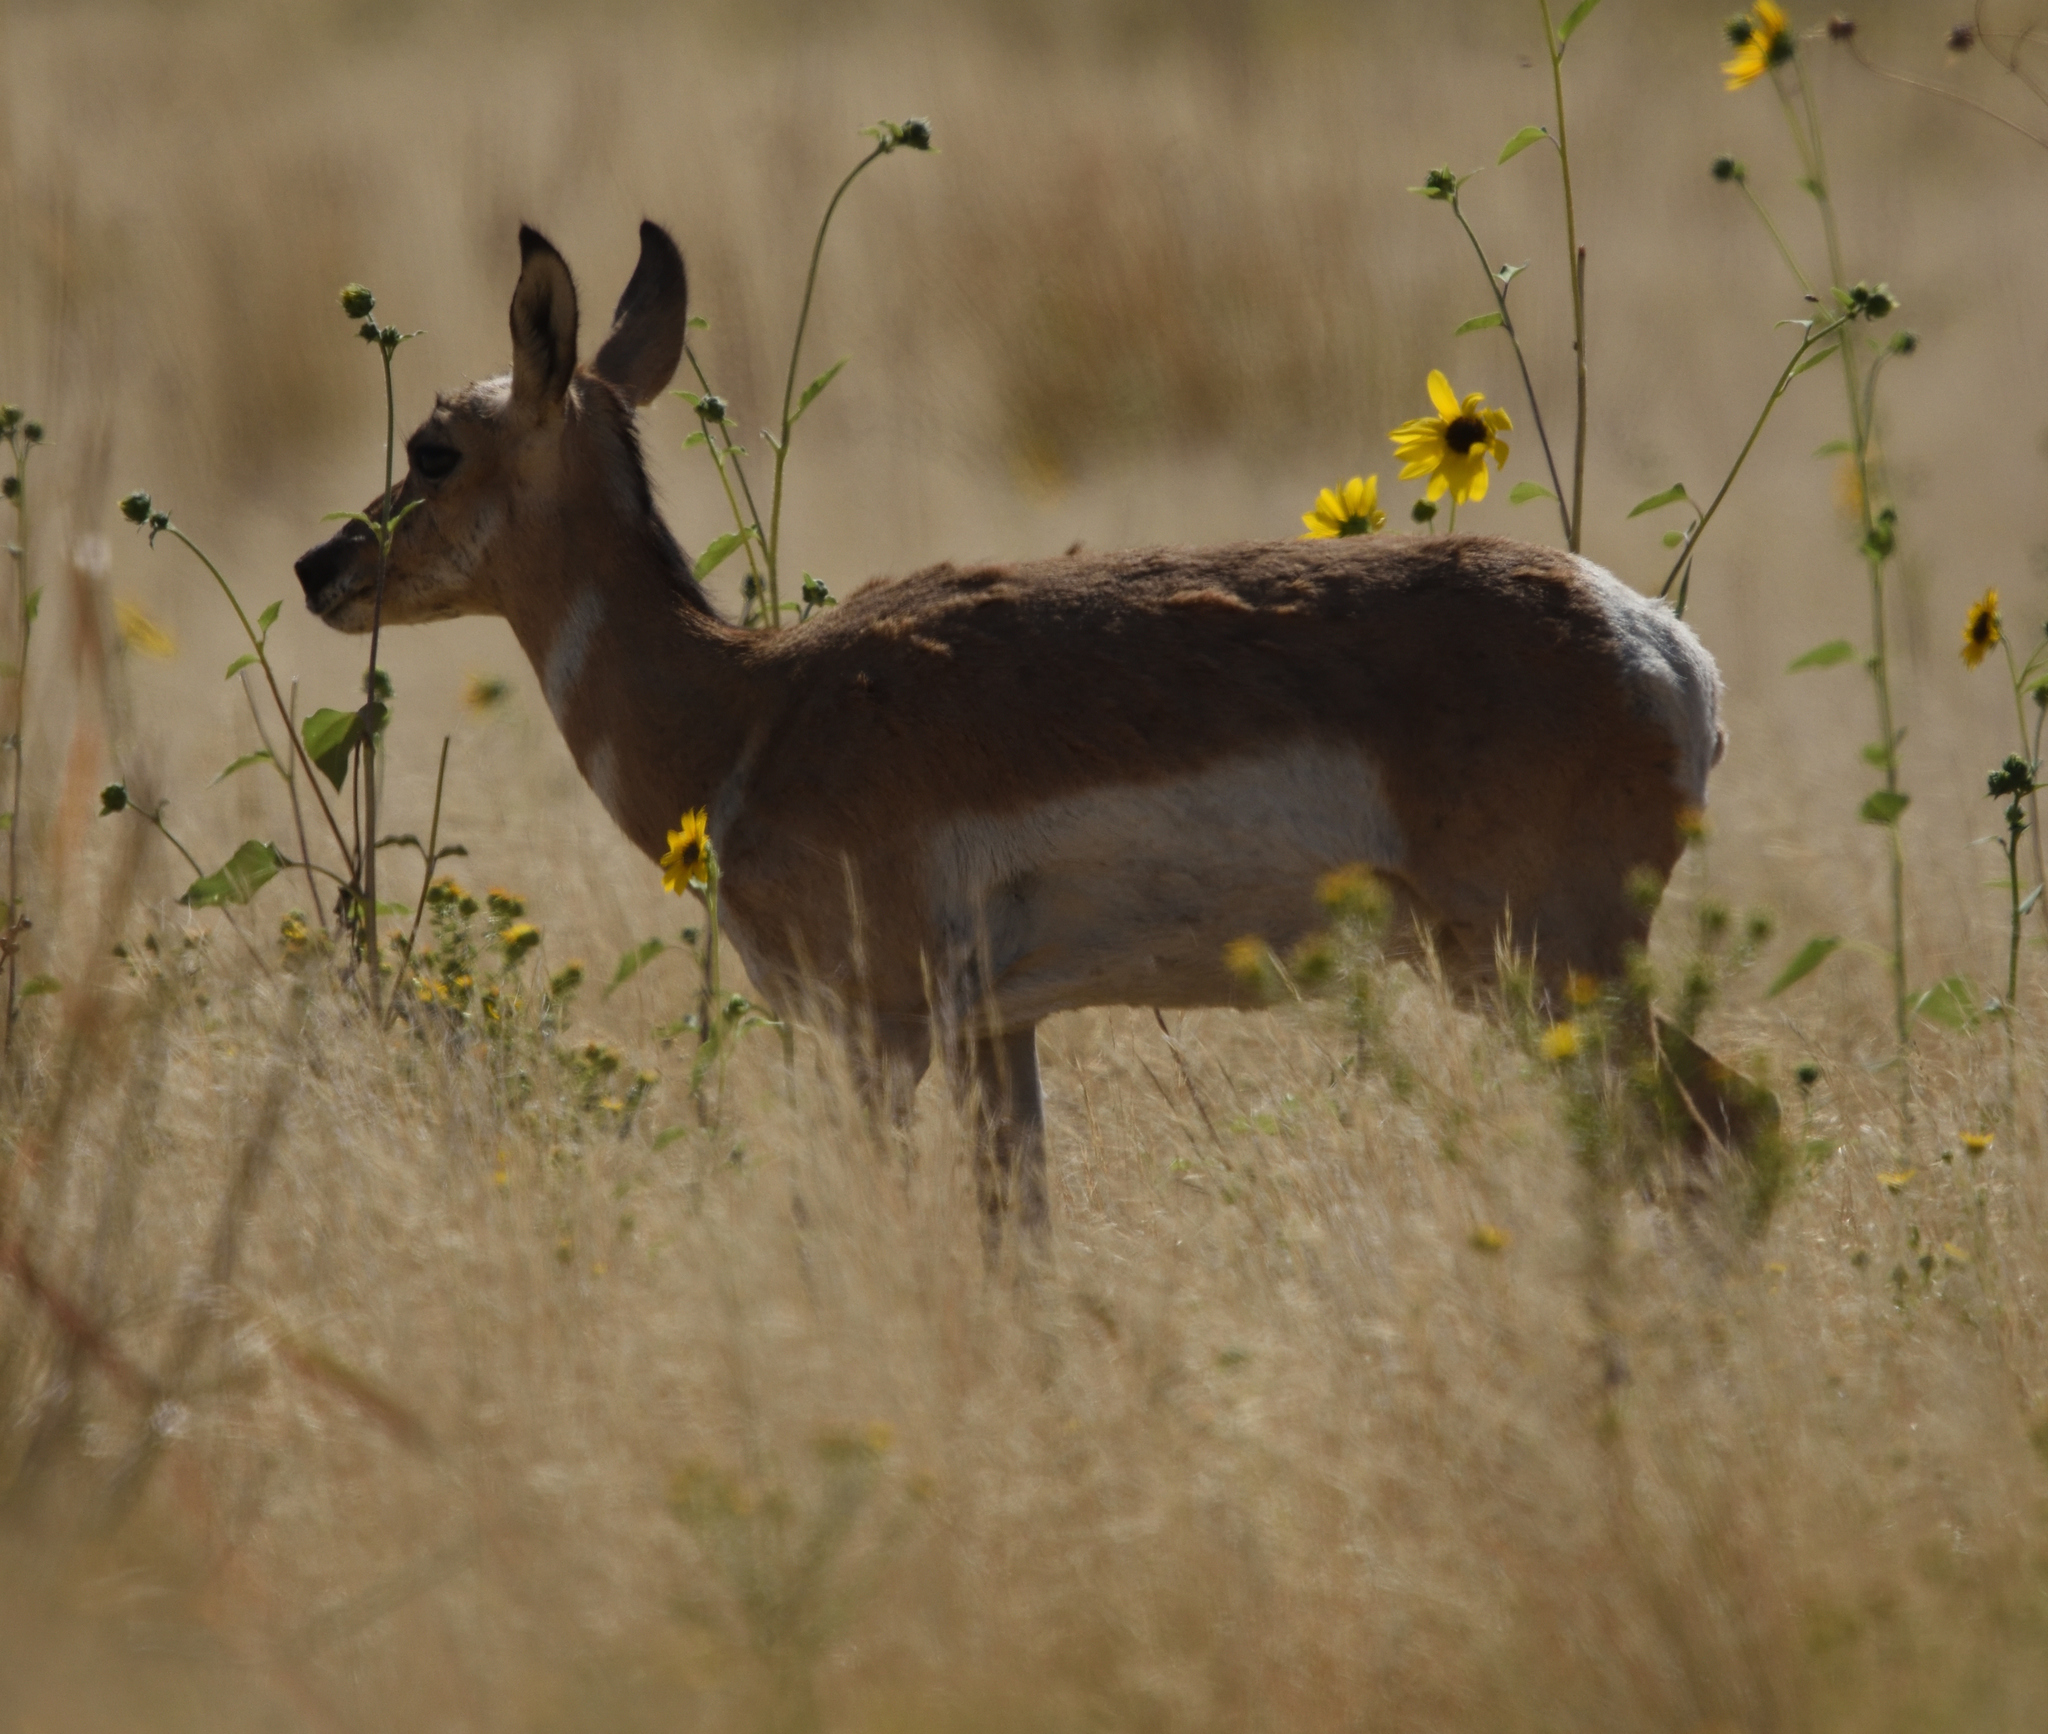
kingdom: Animalia
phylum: Chordata
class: Mammalia
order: Artiodactyla
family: Antilocapridae
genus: Antilocapra
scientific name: Antilocapra americana
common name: Pronghorn
